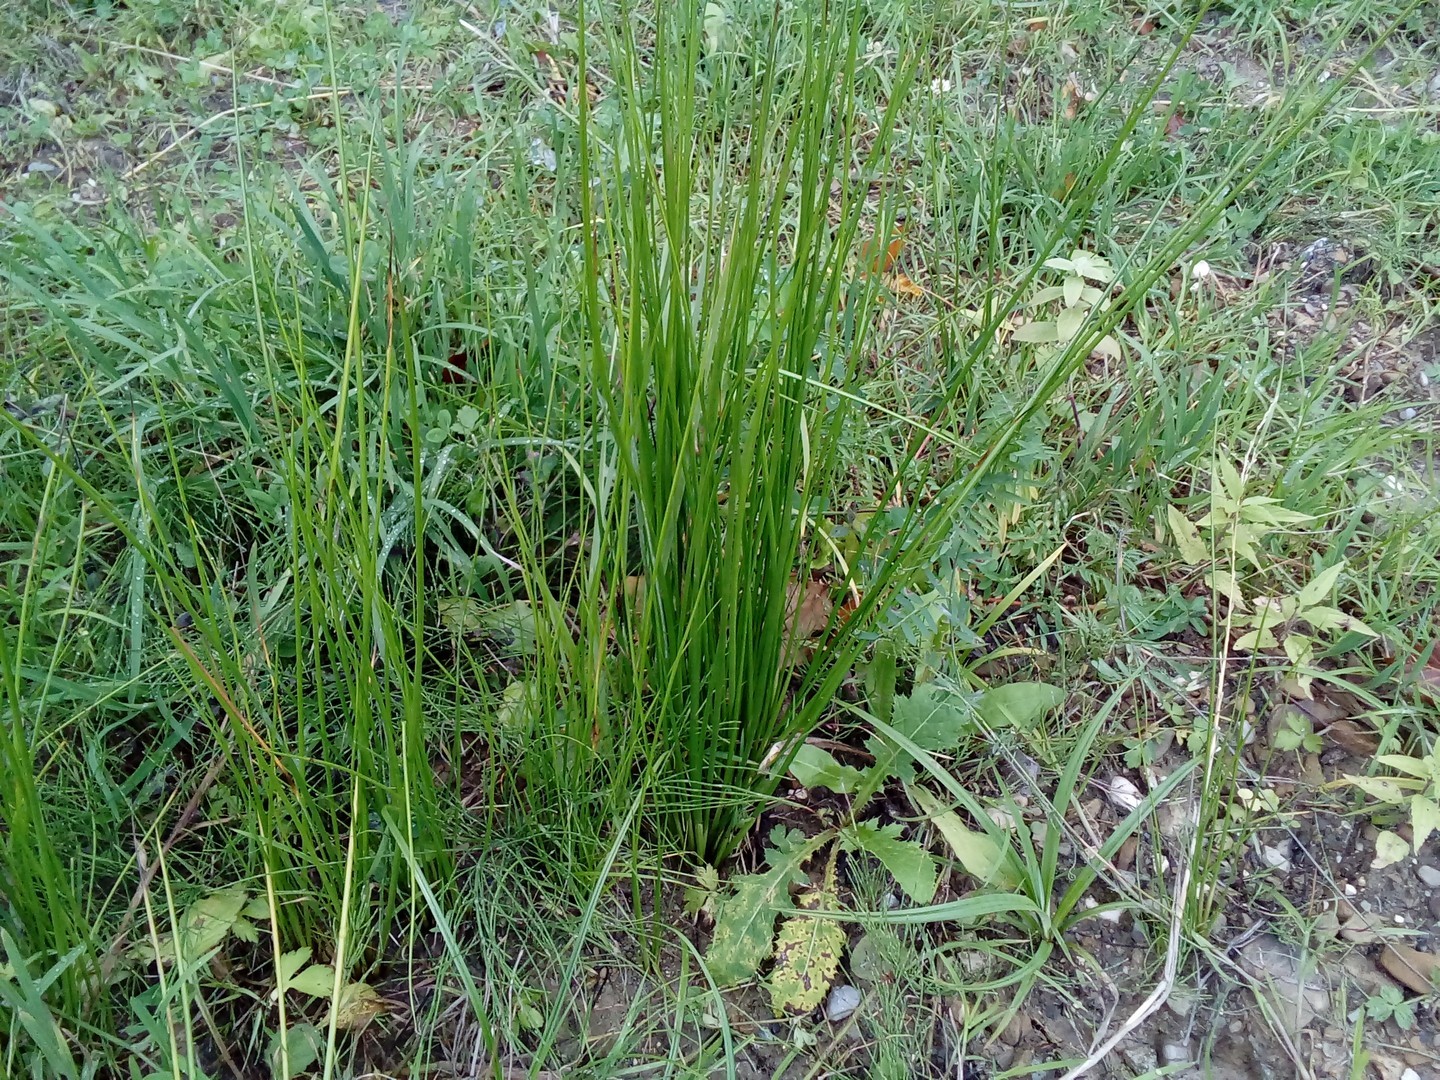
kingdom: Plantae
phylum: Tracheophyta
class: Liliopsida
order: Poales
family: Juncaceae
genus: Juncus
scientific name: Juncus effusus
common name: Soft rush
